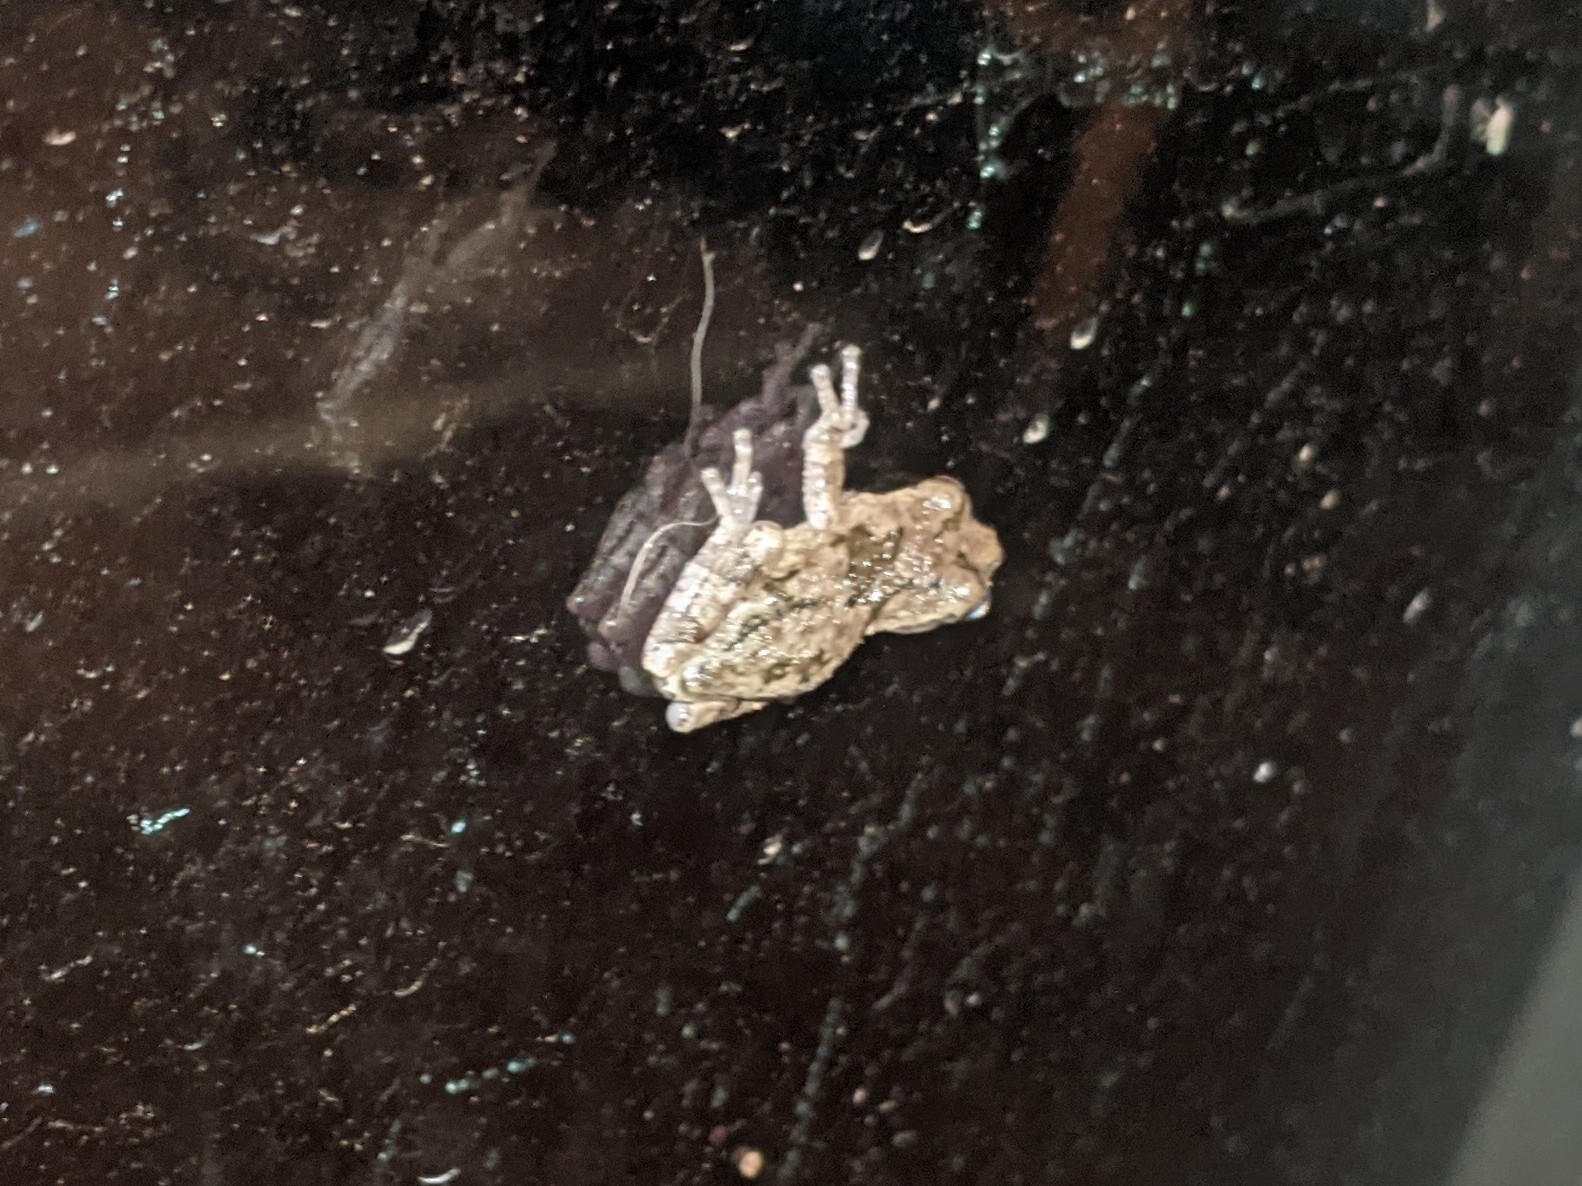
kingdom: Animalia
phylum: Chordata
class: Amphibia
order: Anura
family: Hylidae
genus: Dryophytes
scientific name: Dryophytes versicolor
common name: Gray treefrog
